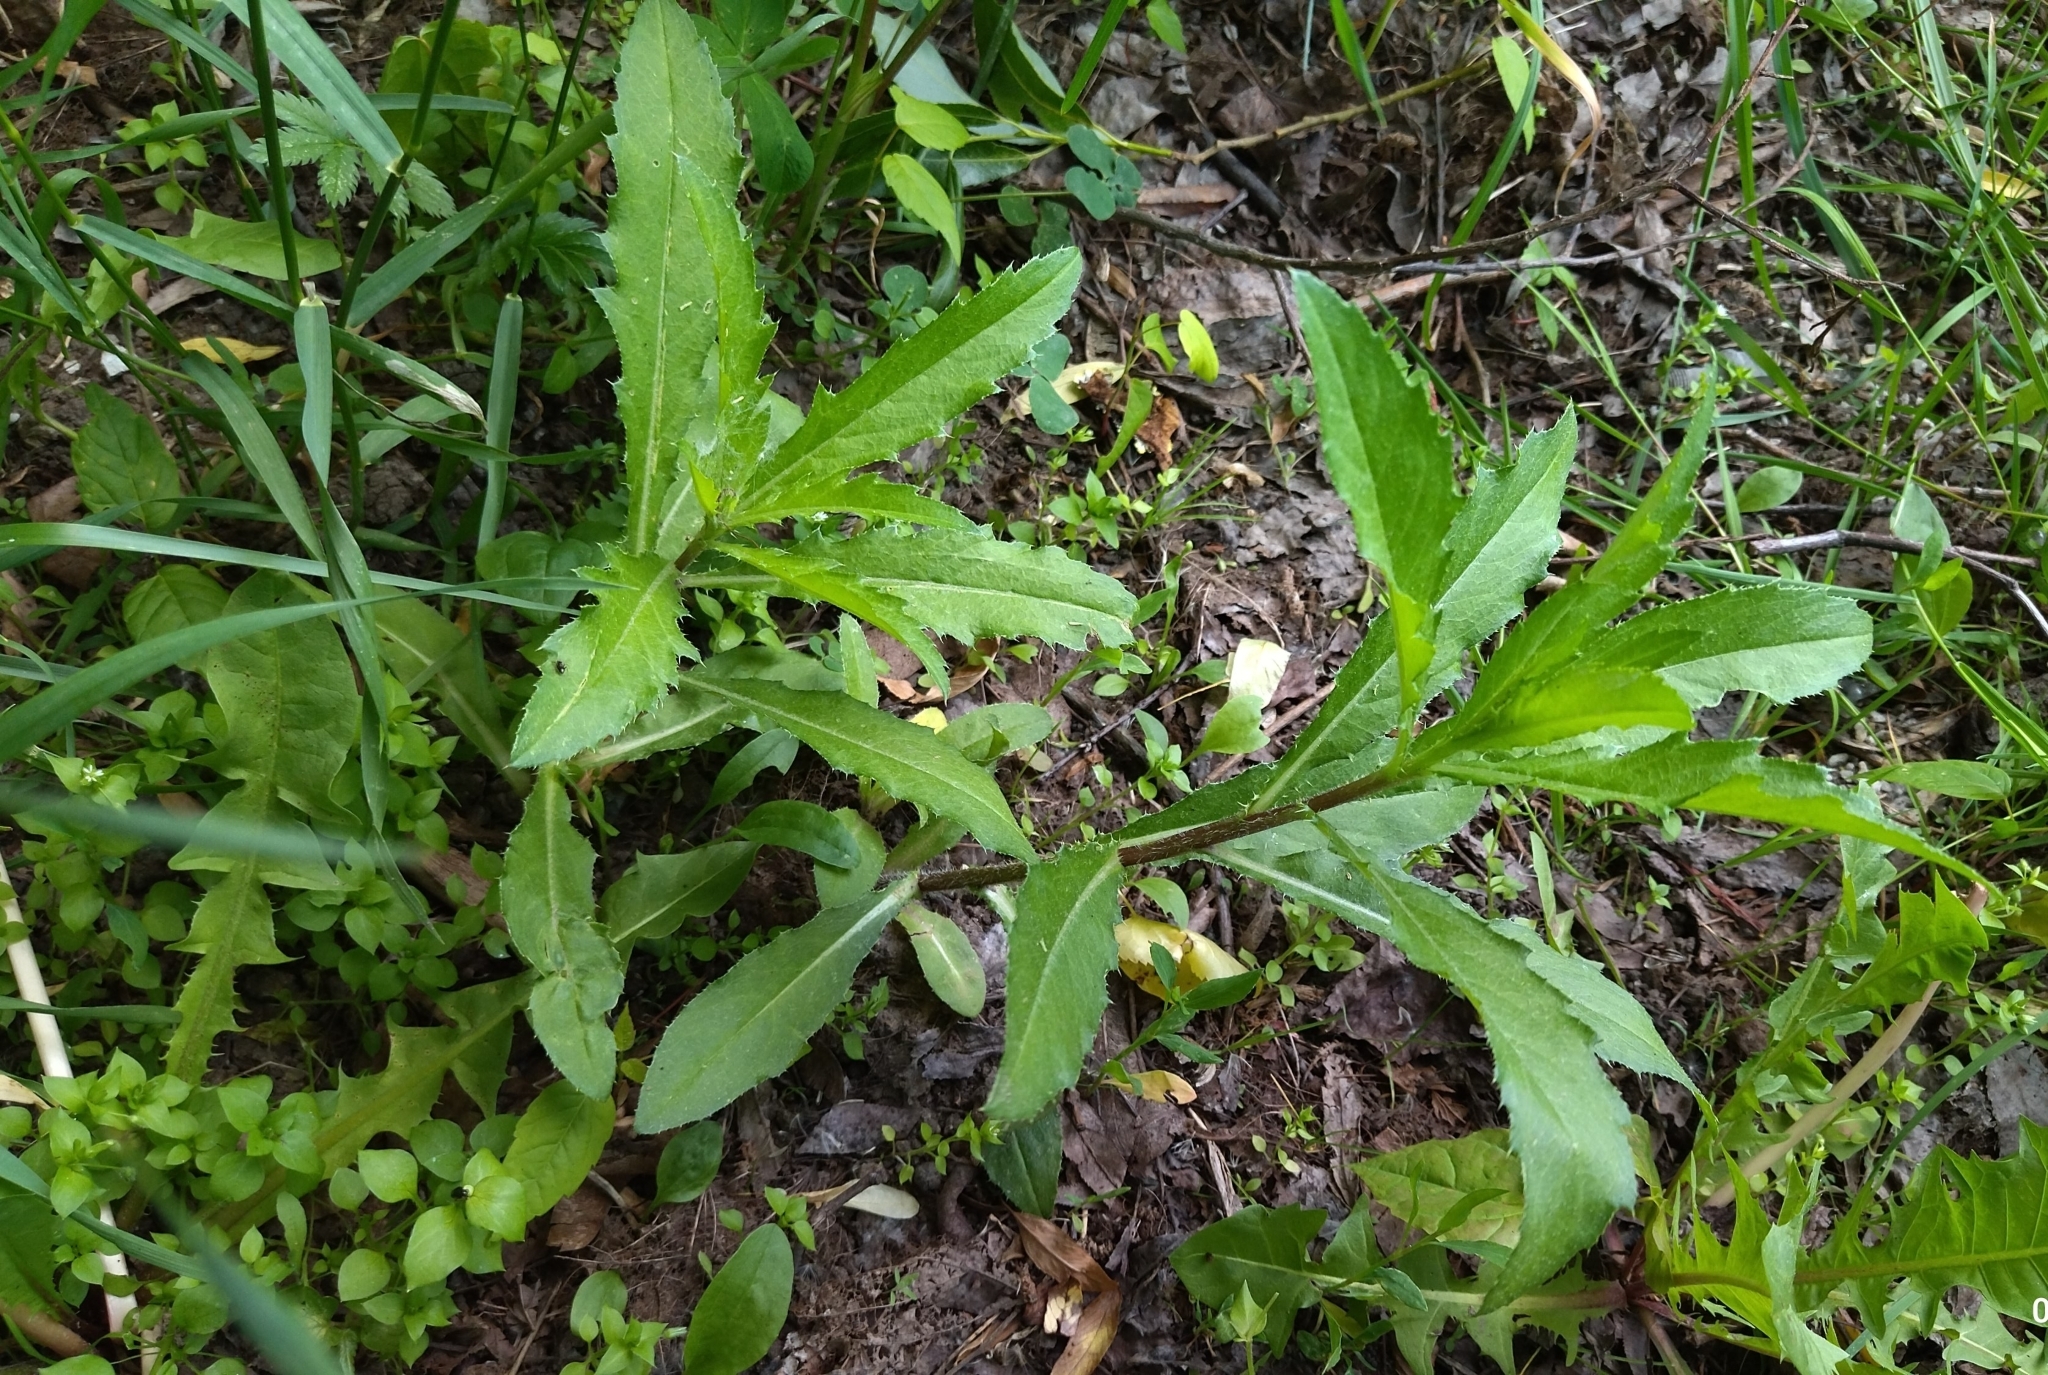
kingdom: Plantae
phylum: Tracheophyta
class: Magnoliopsida
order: Asterales
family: Asteraceae
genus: Cirsium
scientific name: Cirsium arvense
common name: Creeping thistle
